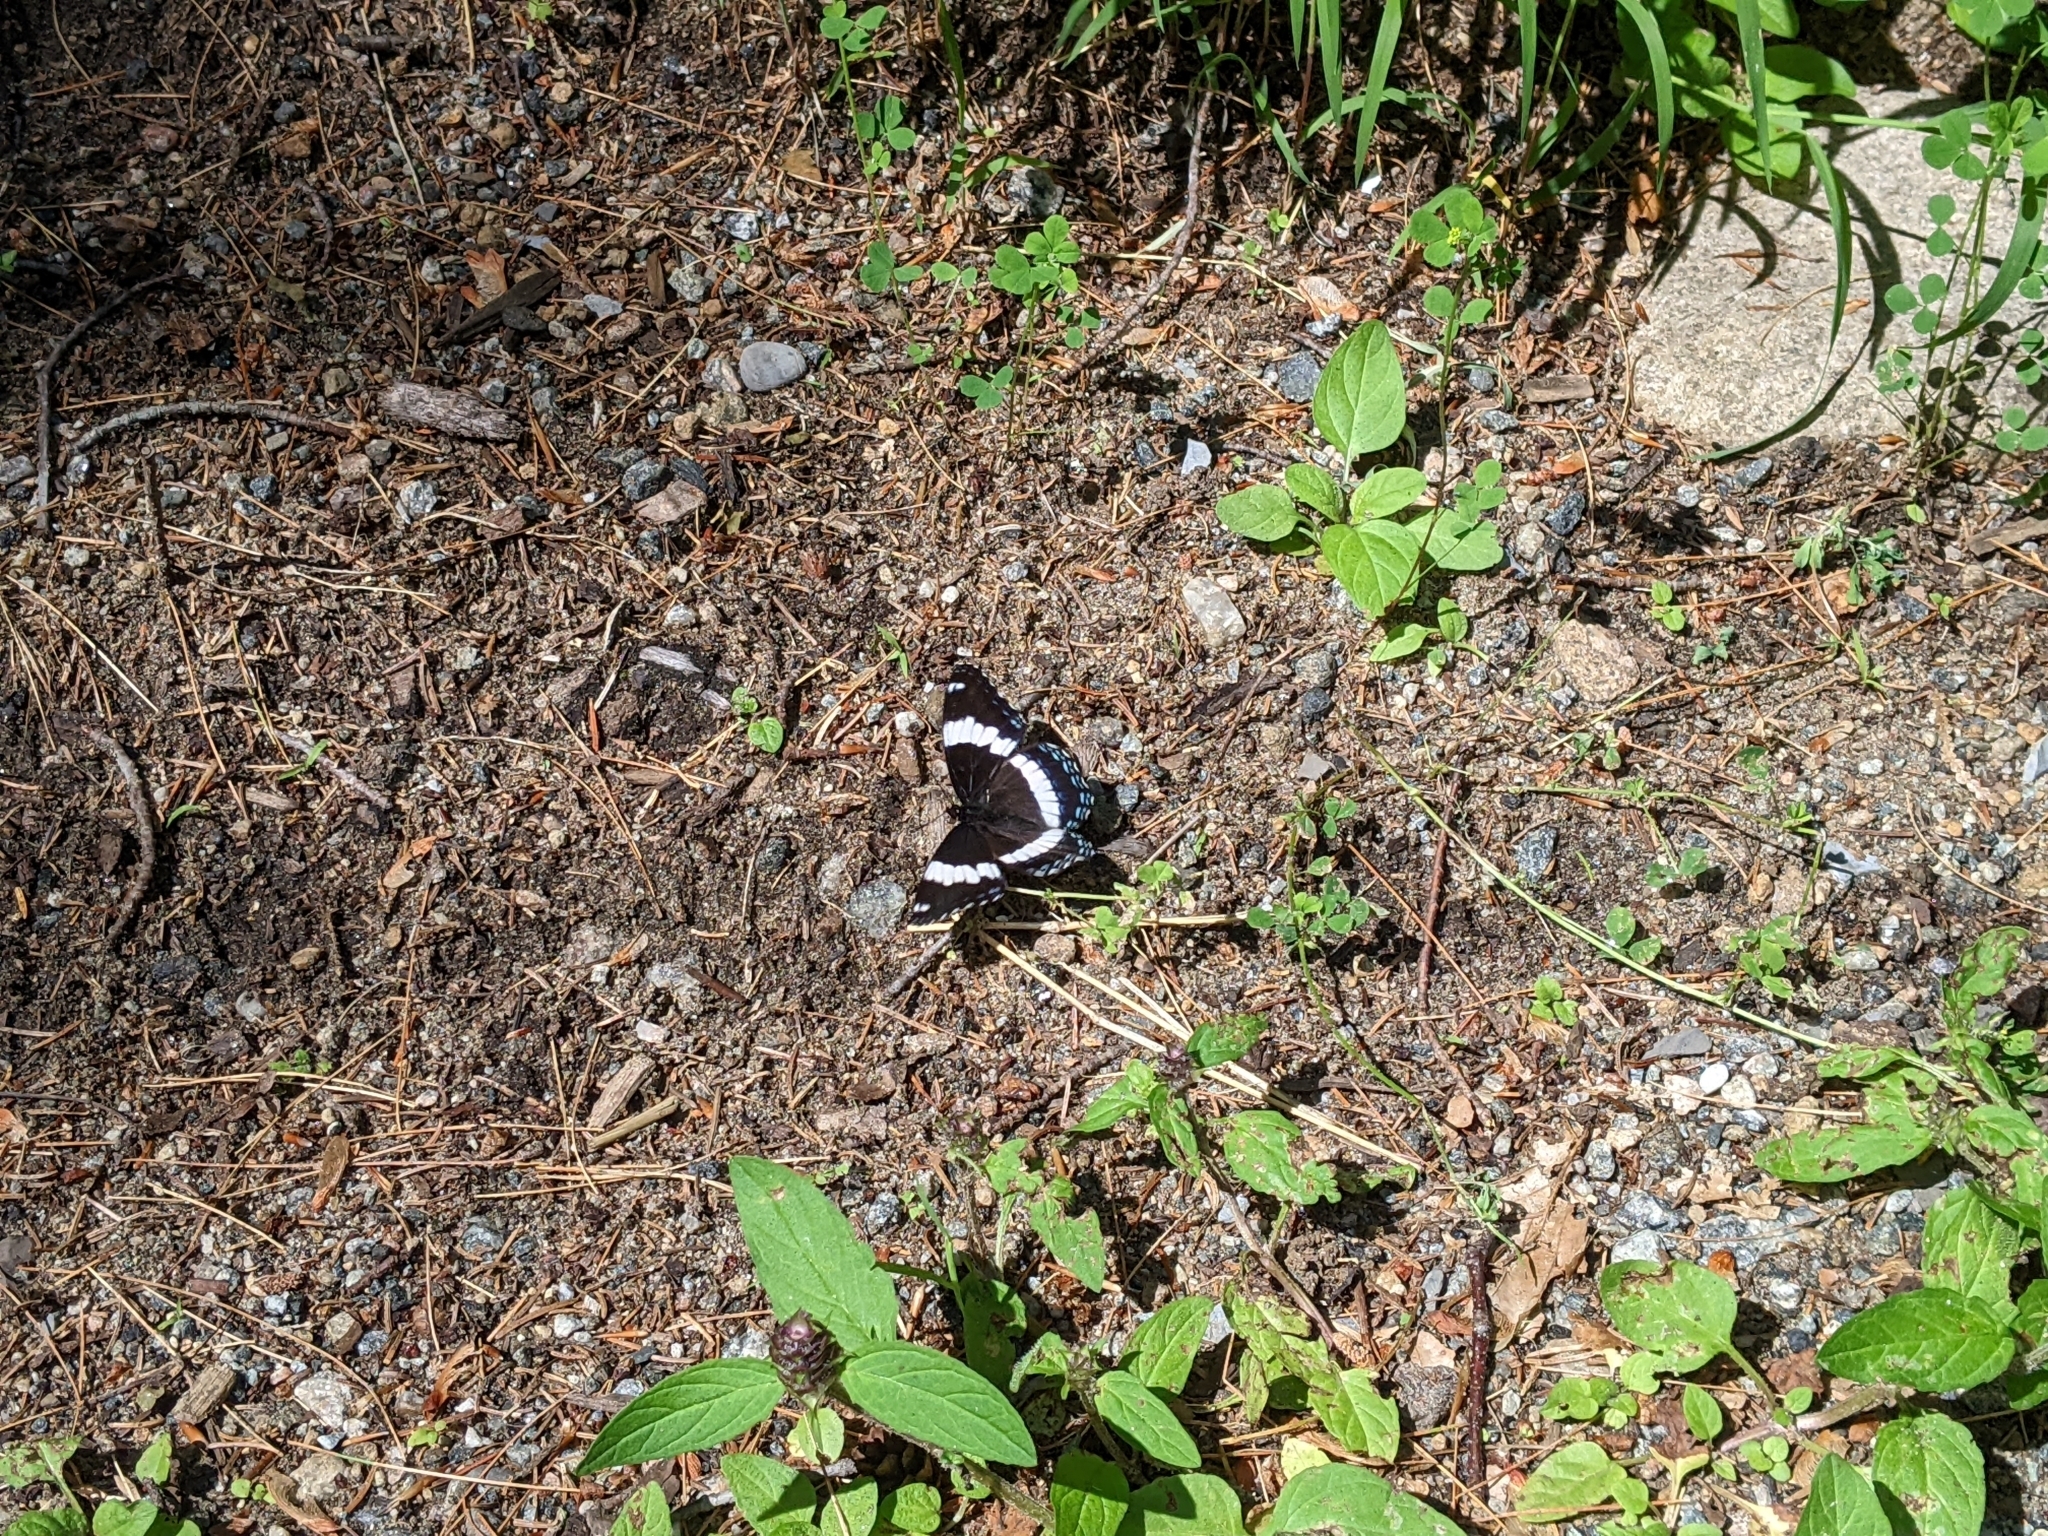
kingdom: Animalia
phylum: Arthropoda
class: Insecta
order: Lepidoptera
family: Nymphalidae
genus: Limenitis
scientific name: Limenitis arthemis
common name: Red-spotted admiral
